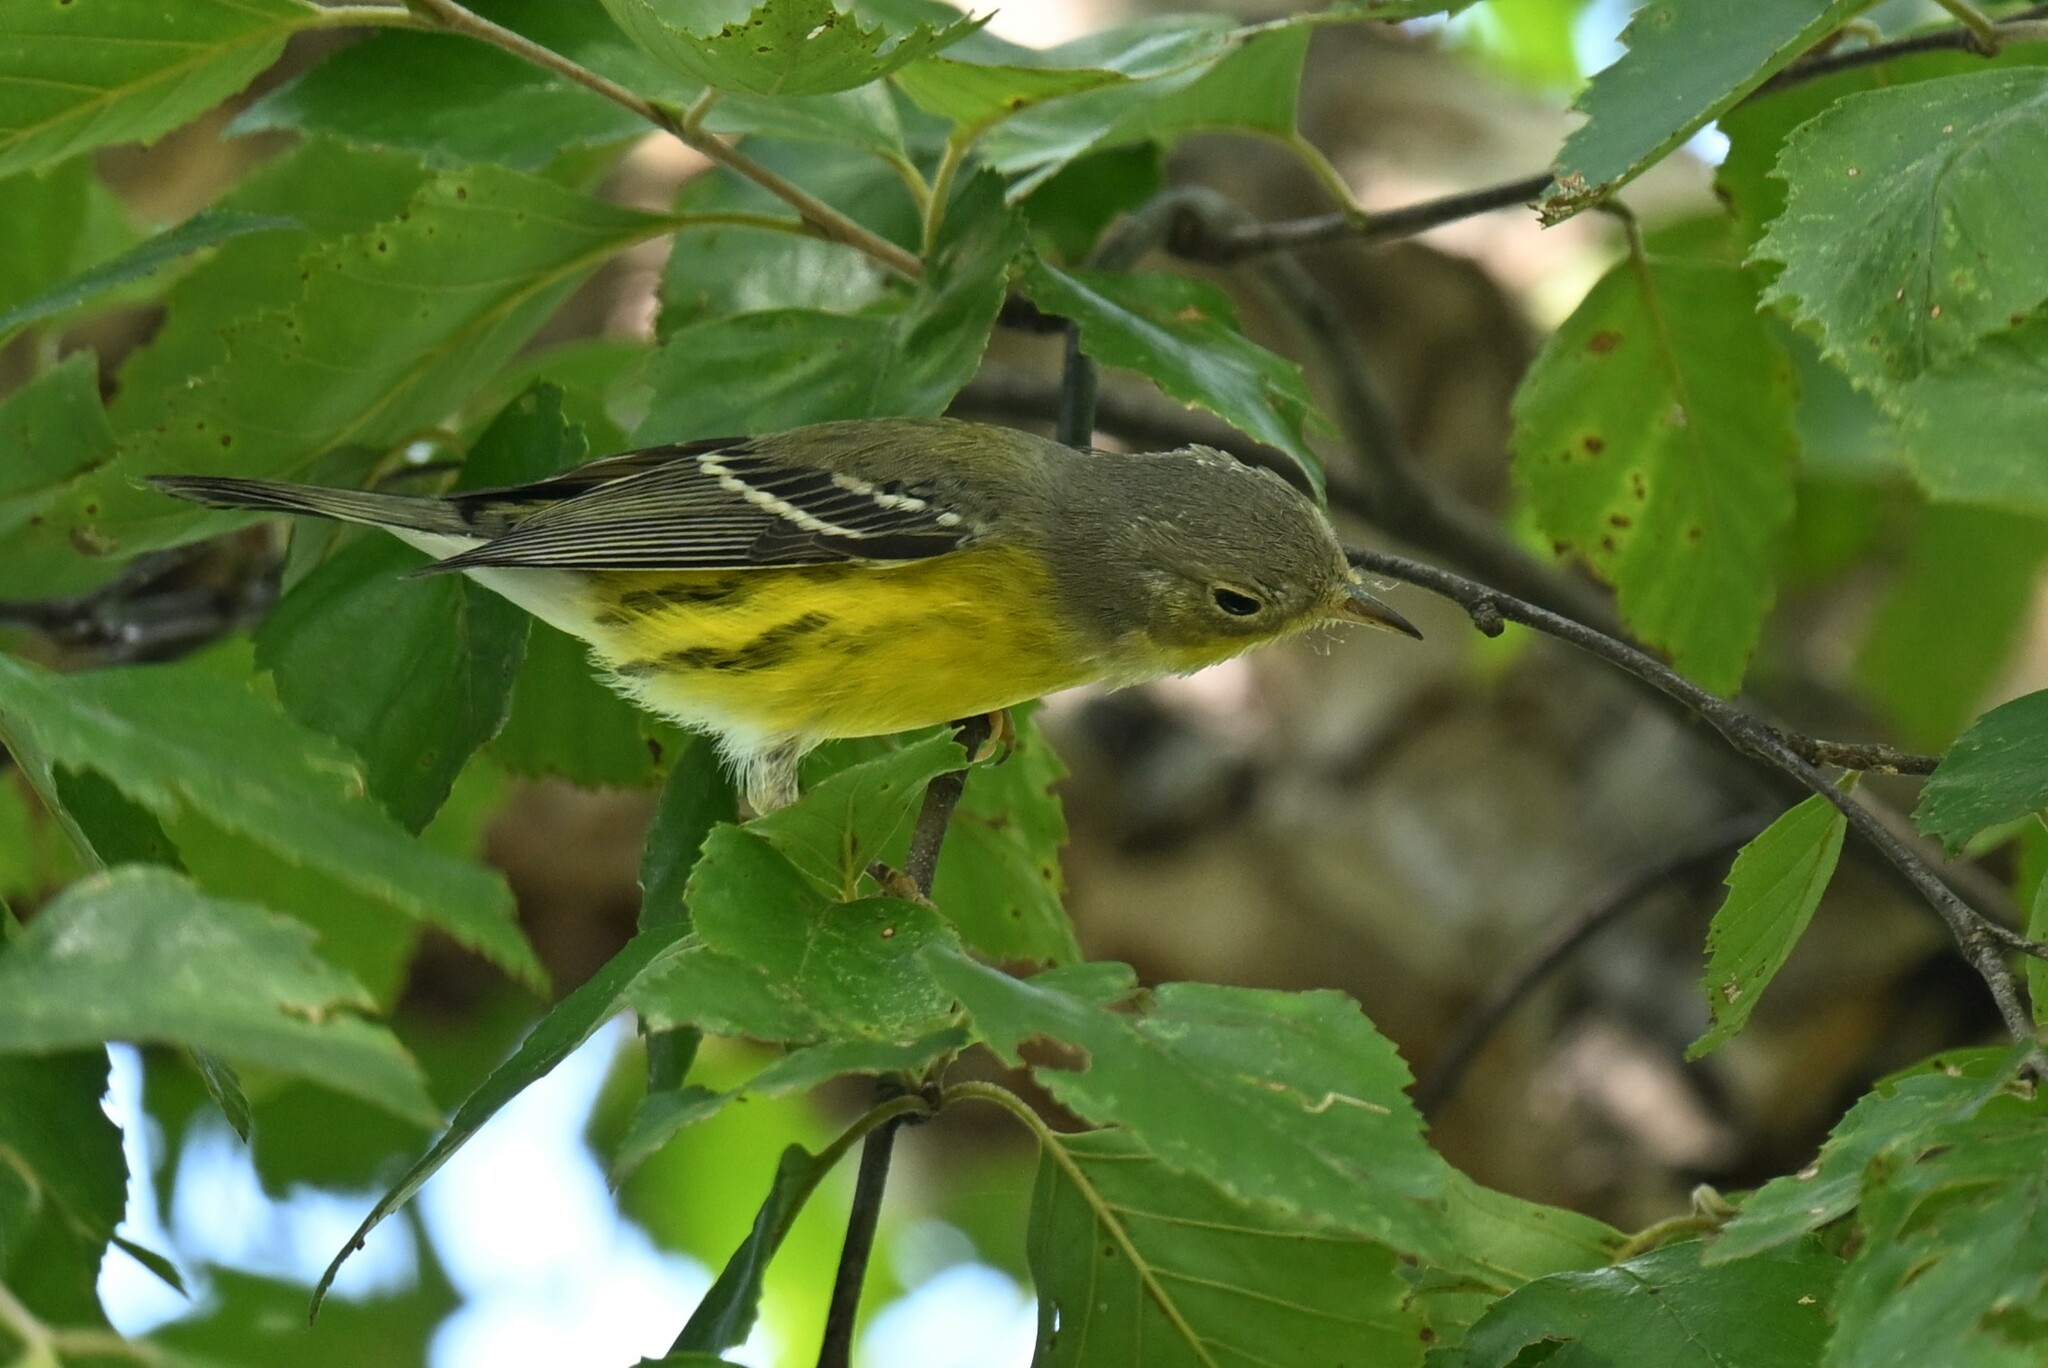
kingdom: Animalia
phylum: Chordata
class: Aves
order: Passeriformes
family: Parulidae
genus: Setophaga
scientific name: Setophaga magnolia
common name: Magnolia warbler
